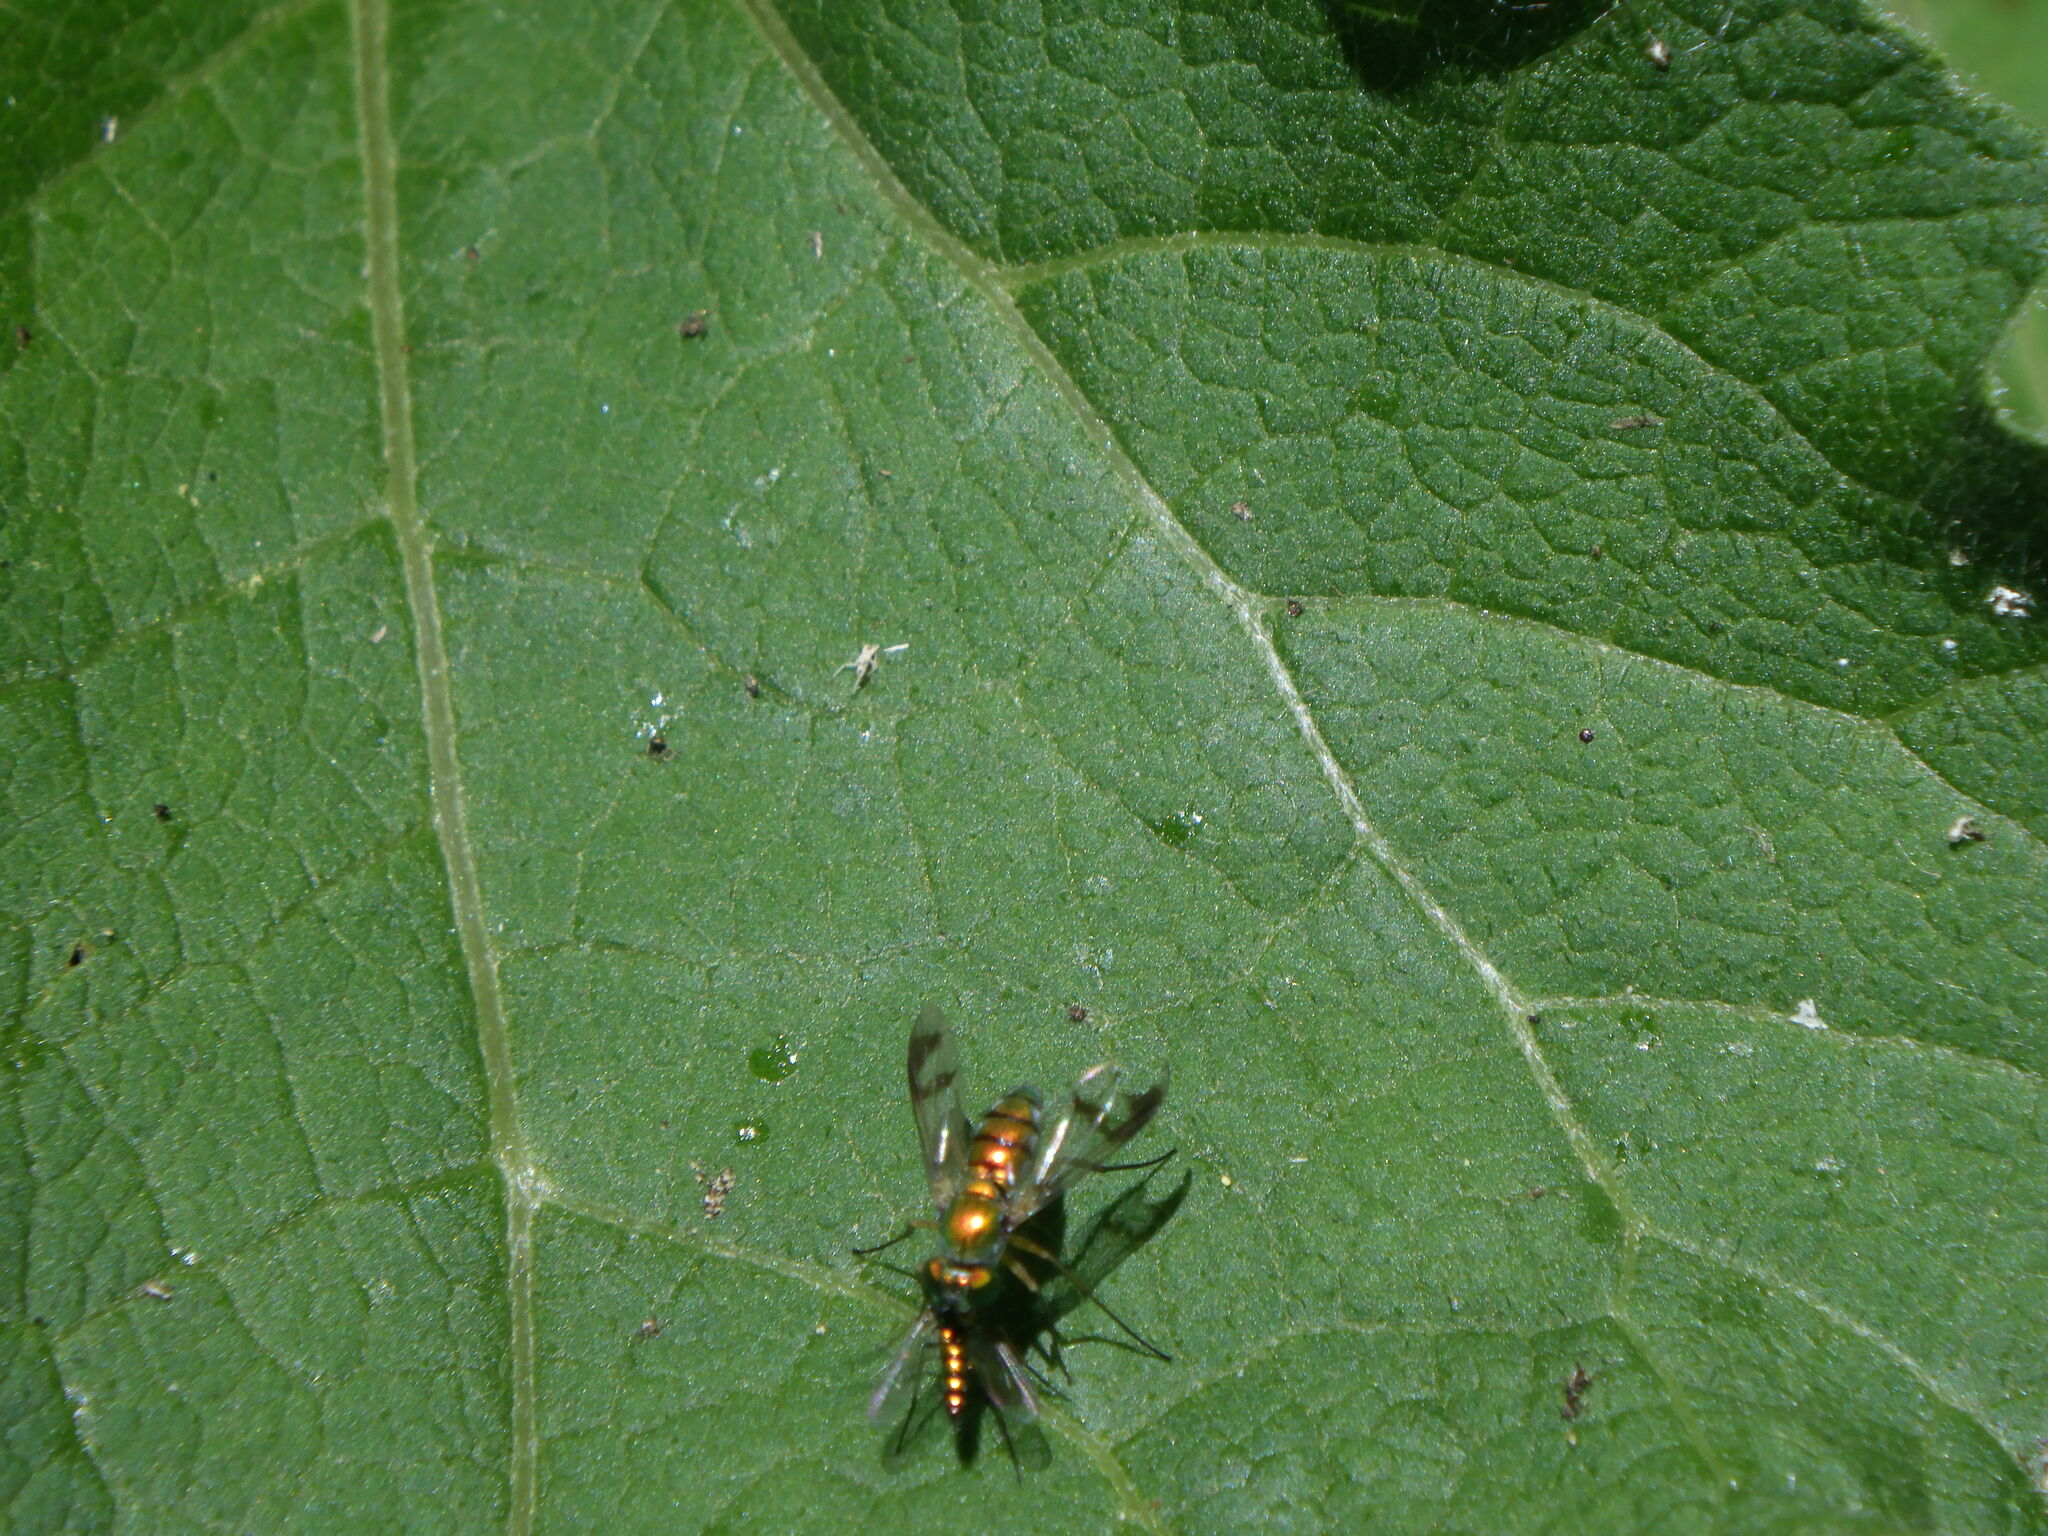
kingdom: Animalia
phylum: Arthropoda
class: Insecta
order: Diptera
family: Dolichopodidae
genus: Condylostylus
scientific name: Condylostylus
